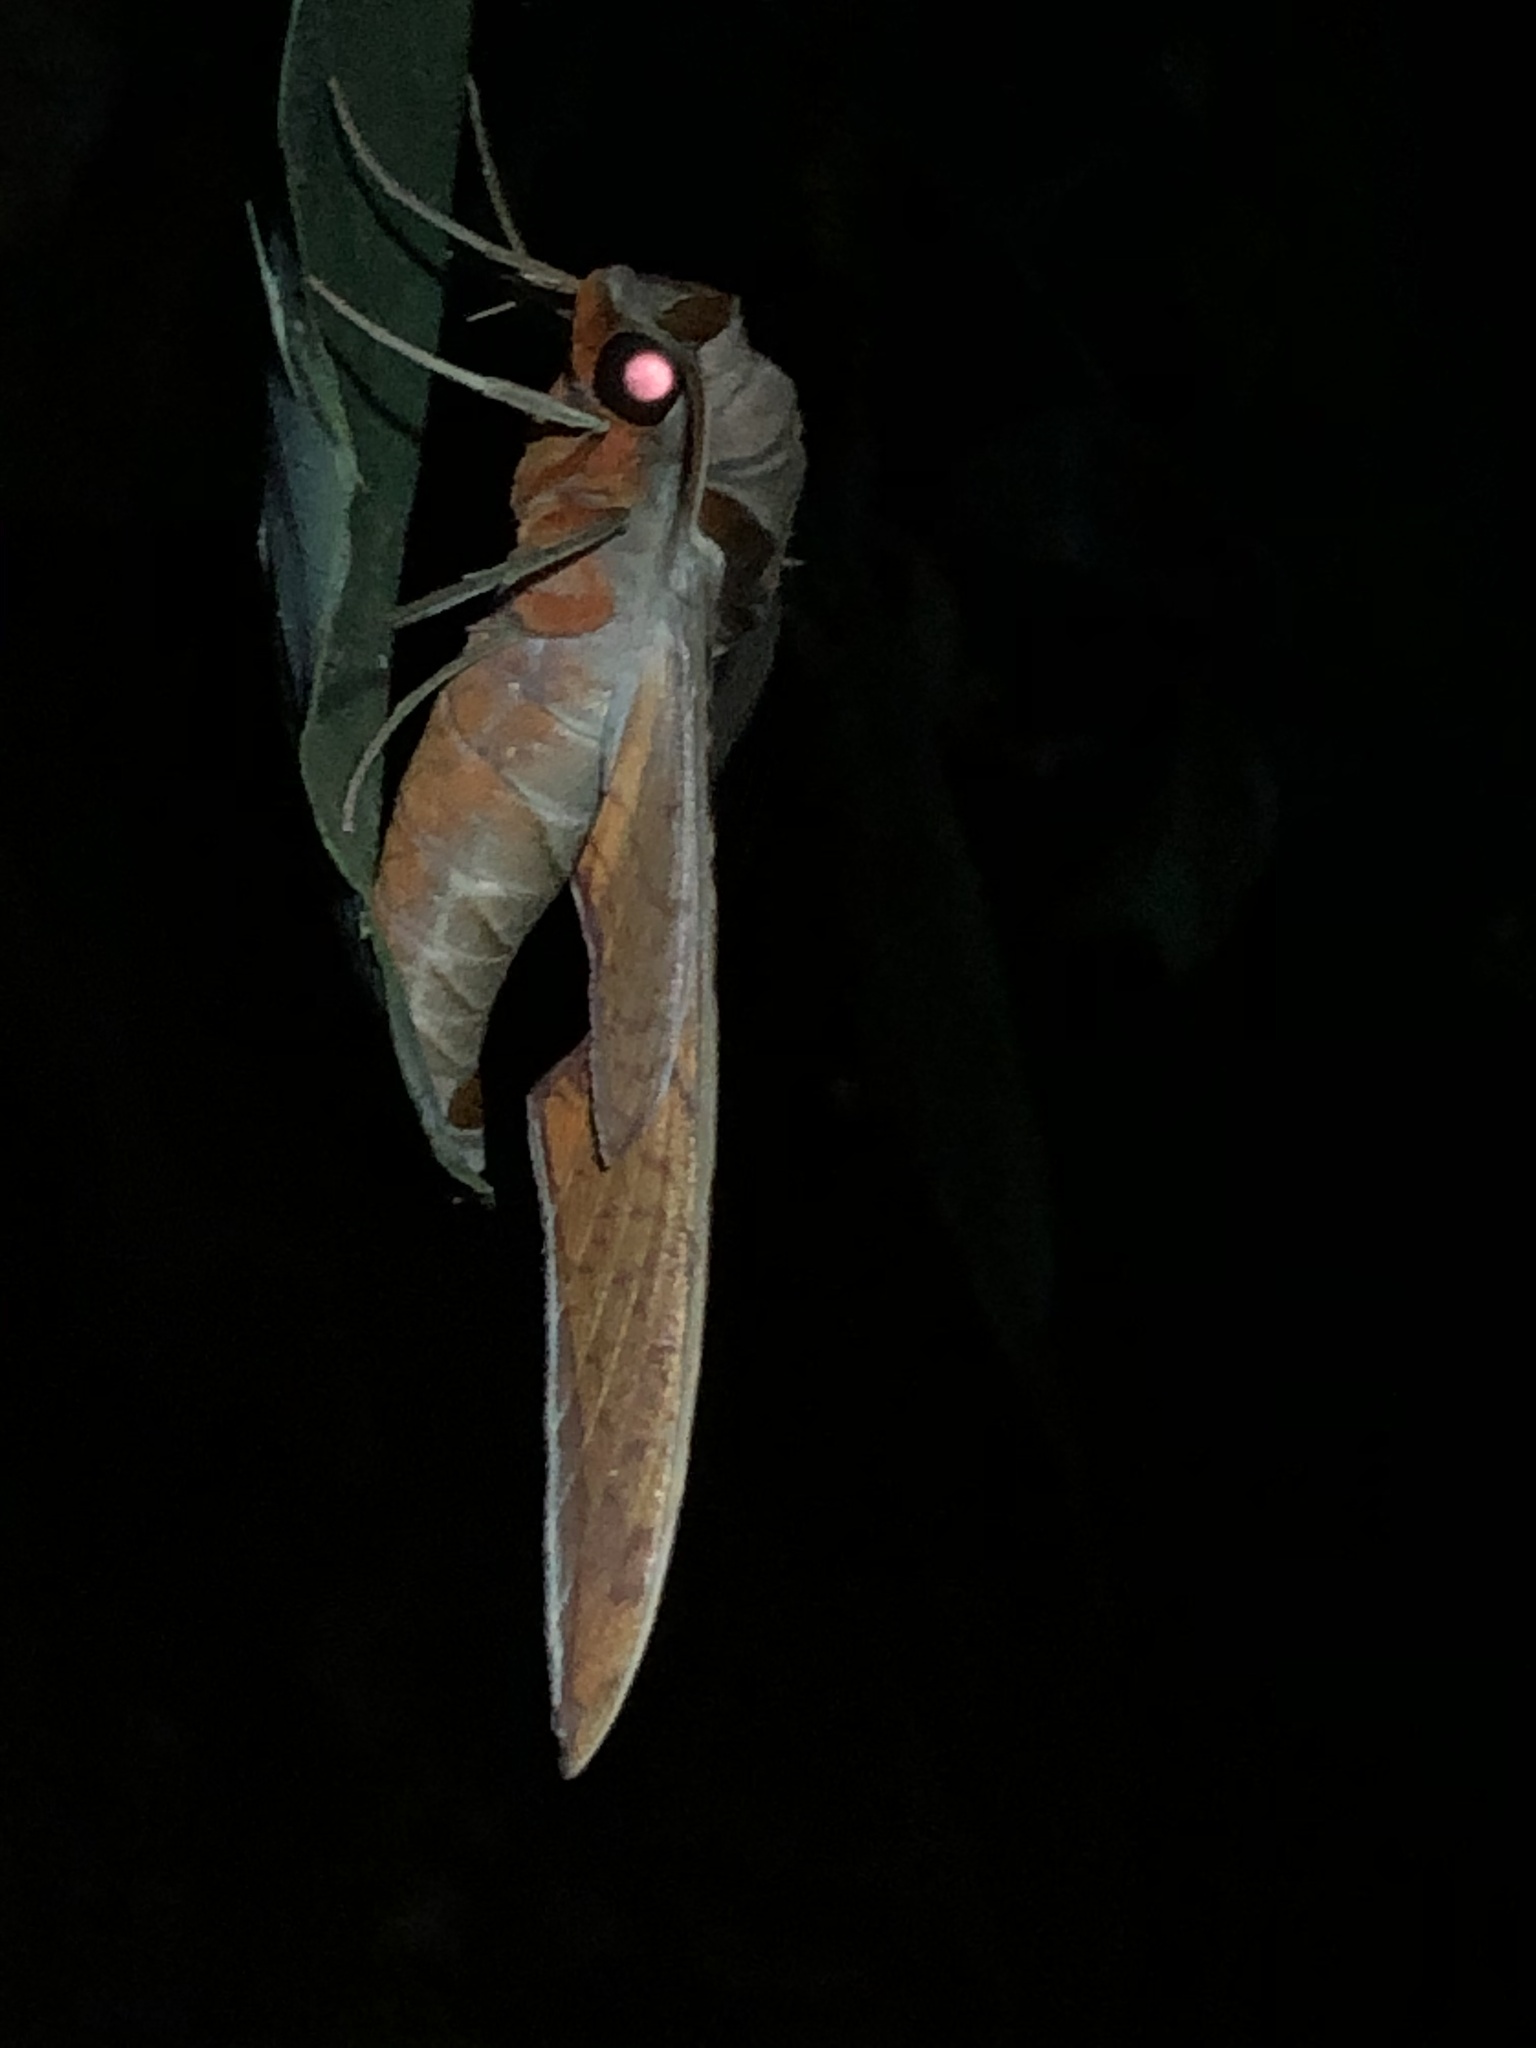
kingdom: Animalia
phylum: Arthropoda
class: Insecta
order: Lepidoptera
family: Sphingidae
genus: Protambulyx
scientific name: Protambulyx strigilis
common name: Streaked sphinx
